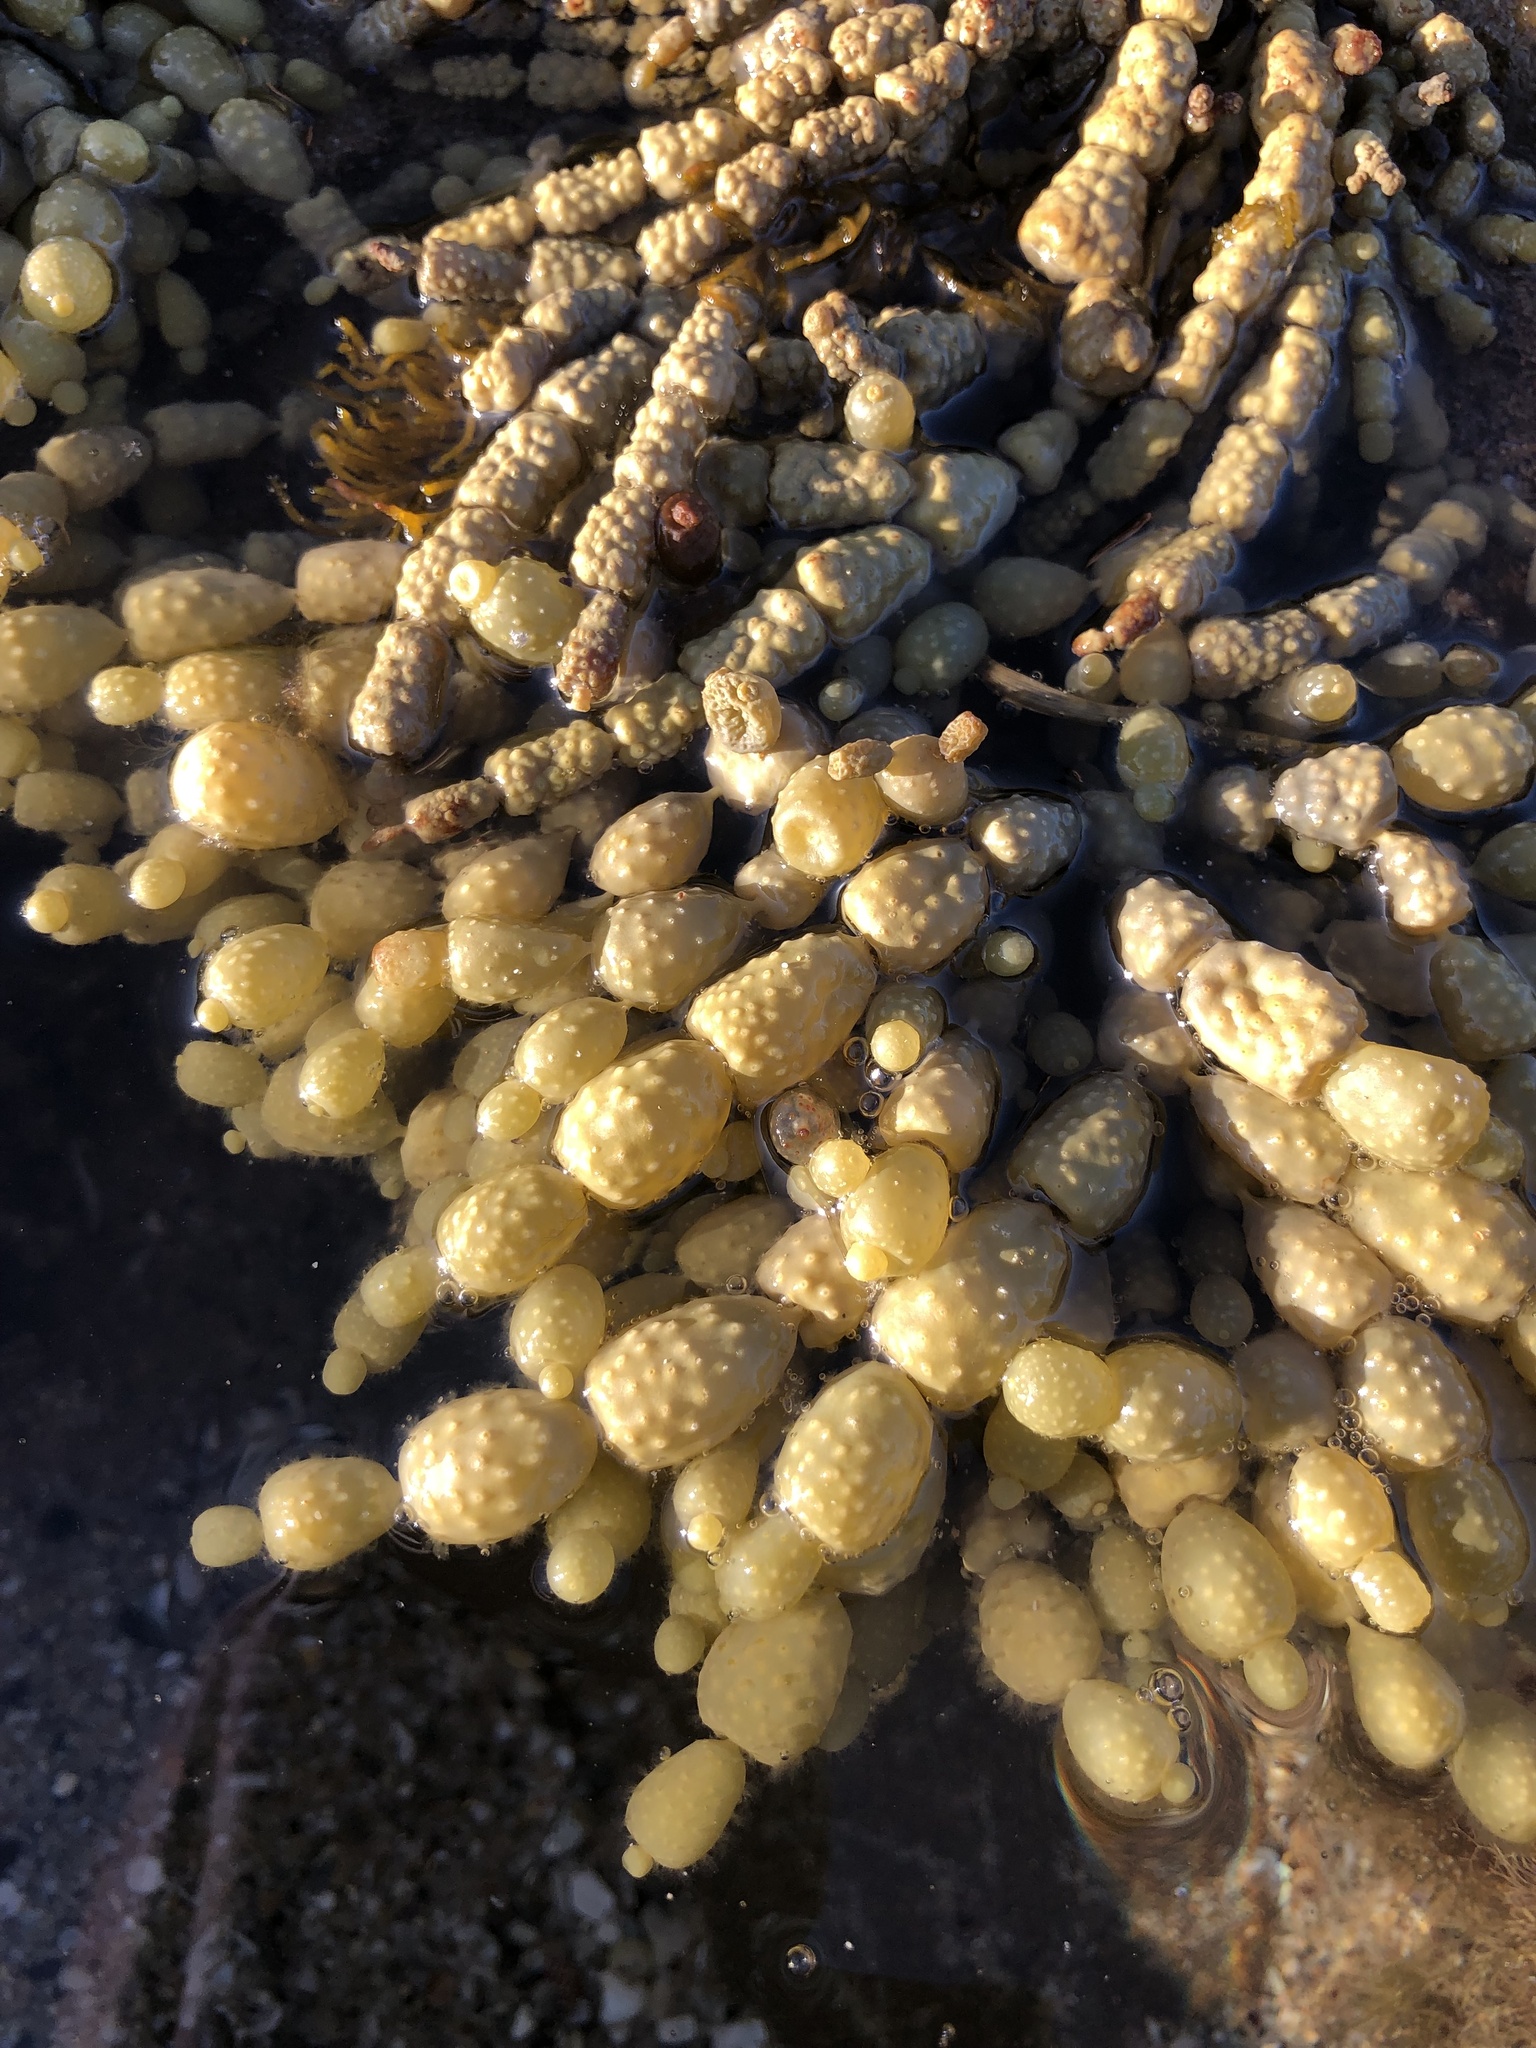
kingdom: Chromista
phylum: Ochrophyta
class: Phaeophyceae
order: Fucales
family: Hormosiraceae
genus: Hormosira
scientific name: Hormosira banksii
